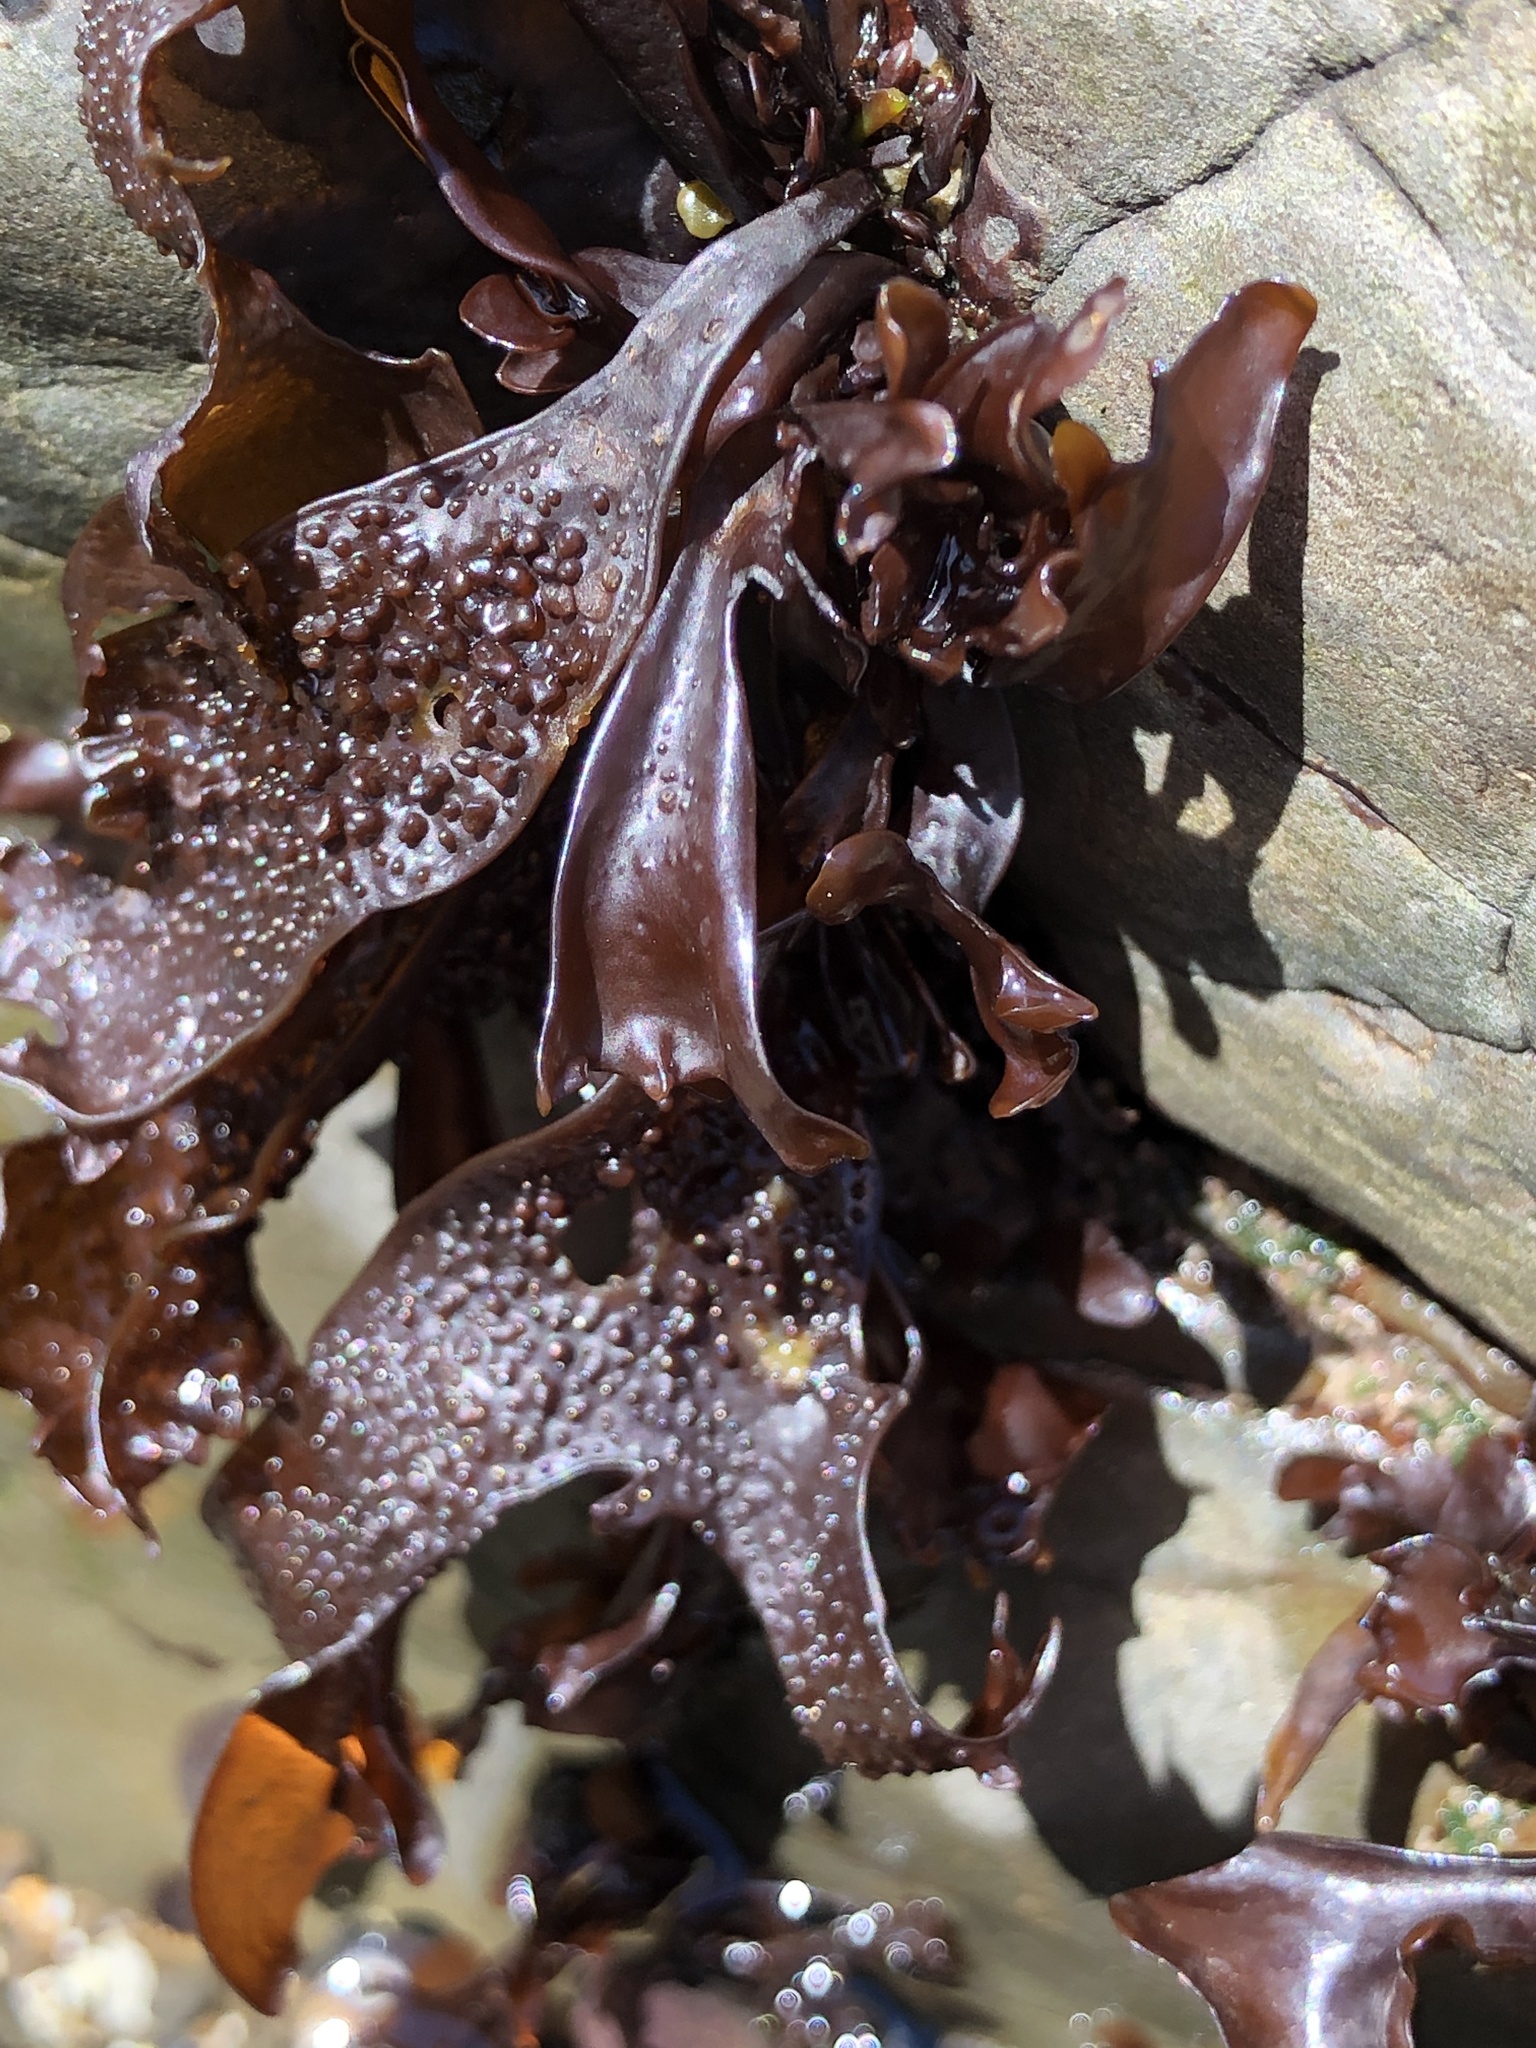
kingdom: Plantae
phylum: Rhodophyta
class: Florideophyceae
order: Gigartinales
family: Phyllophoraceae
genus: Mastocarpus
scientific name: Mastocarpus papillatus
